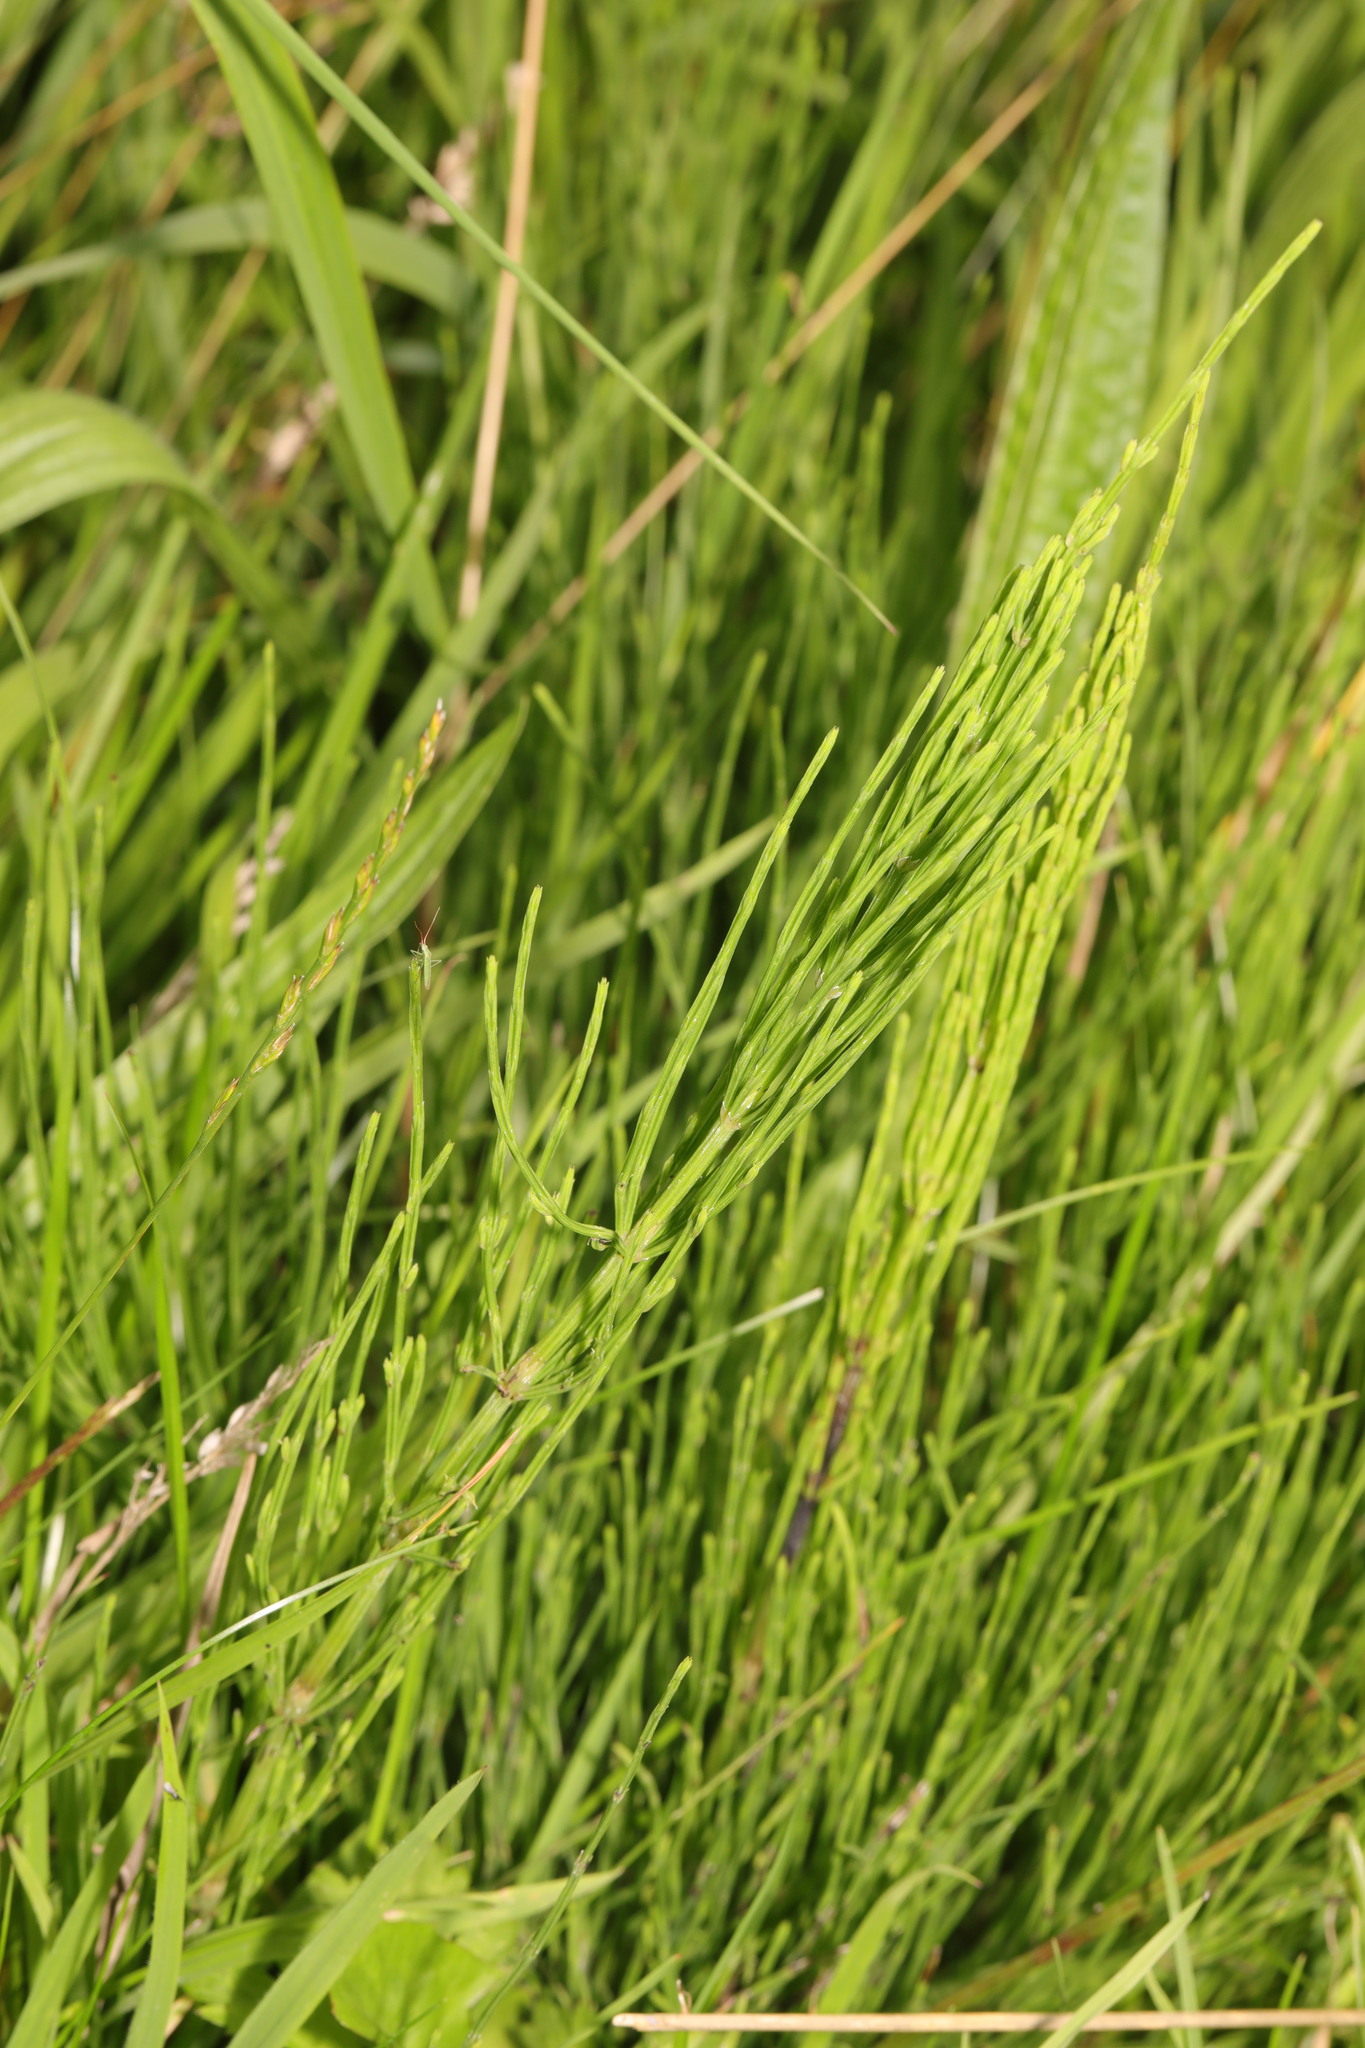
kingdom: Plantae
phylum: Tracheophyta
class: Polypodiopsida
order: Equisetales
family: Equisetaceae
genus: Equisetum
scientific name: Equisetum arvense
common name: Field horsetail
